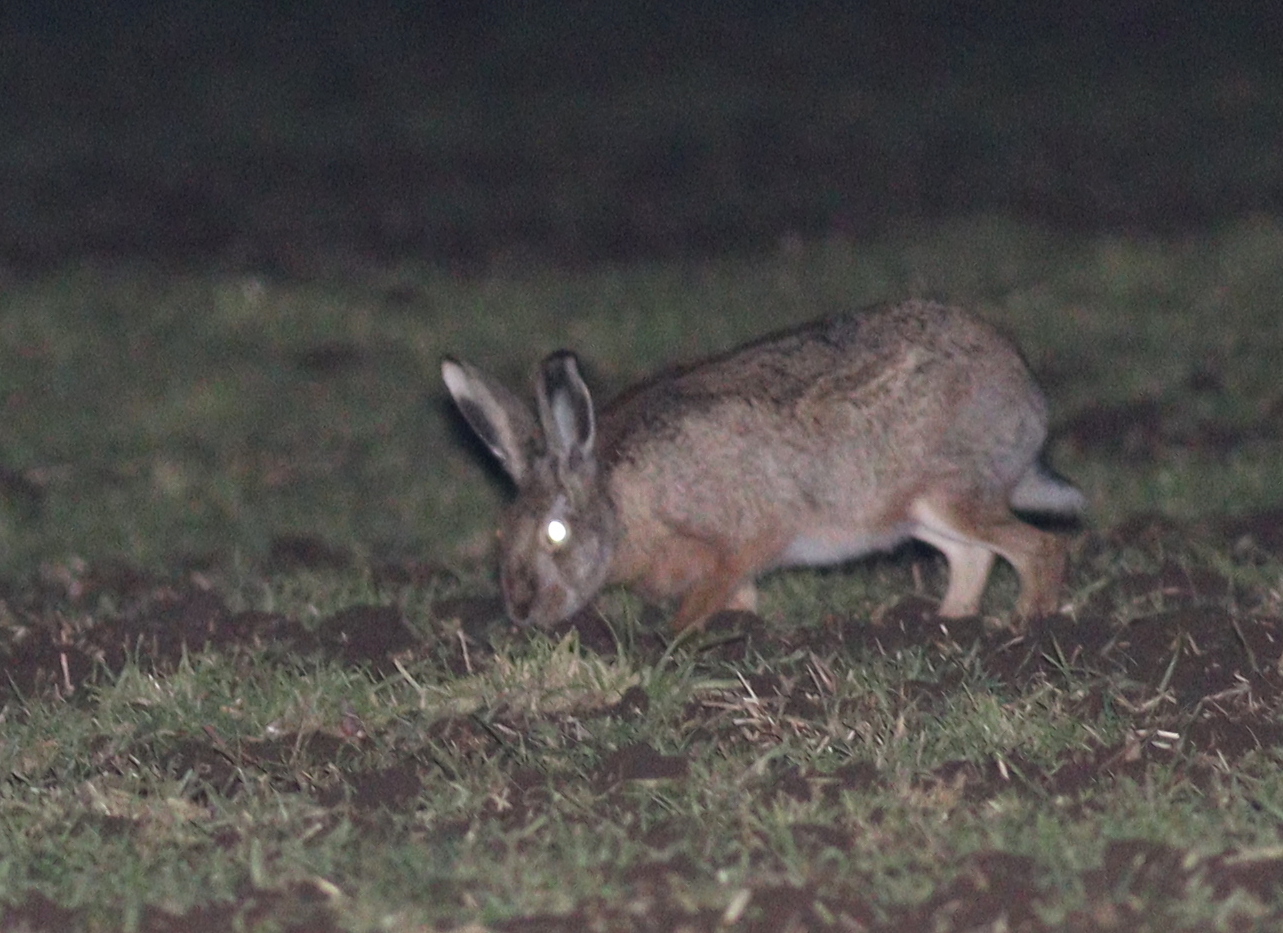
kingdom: Animalia
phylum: Chordata
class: Mammalia
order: Lagomorpha
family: Leporidae
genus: Lepus
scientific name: Lepus europaeus
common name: European hare
